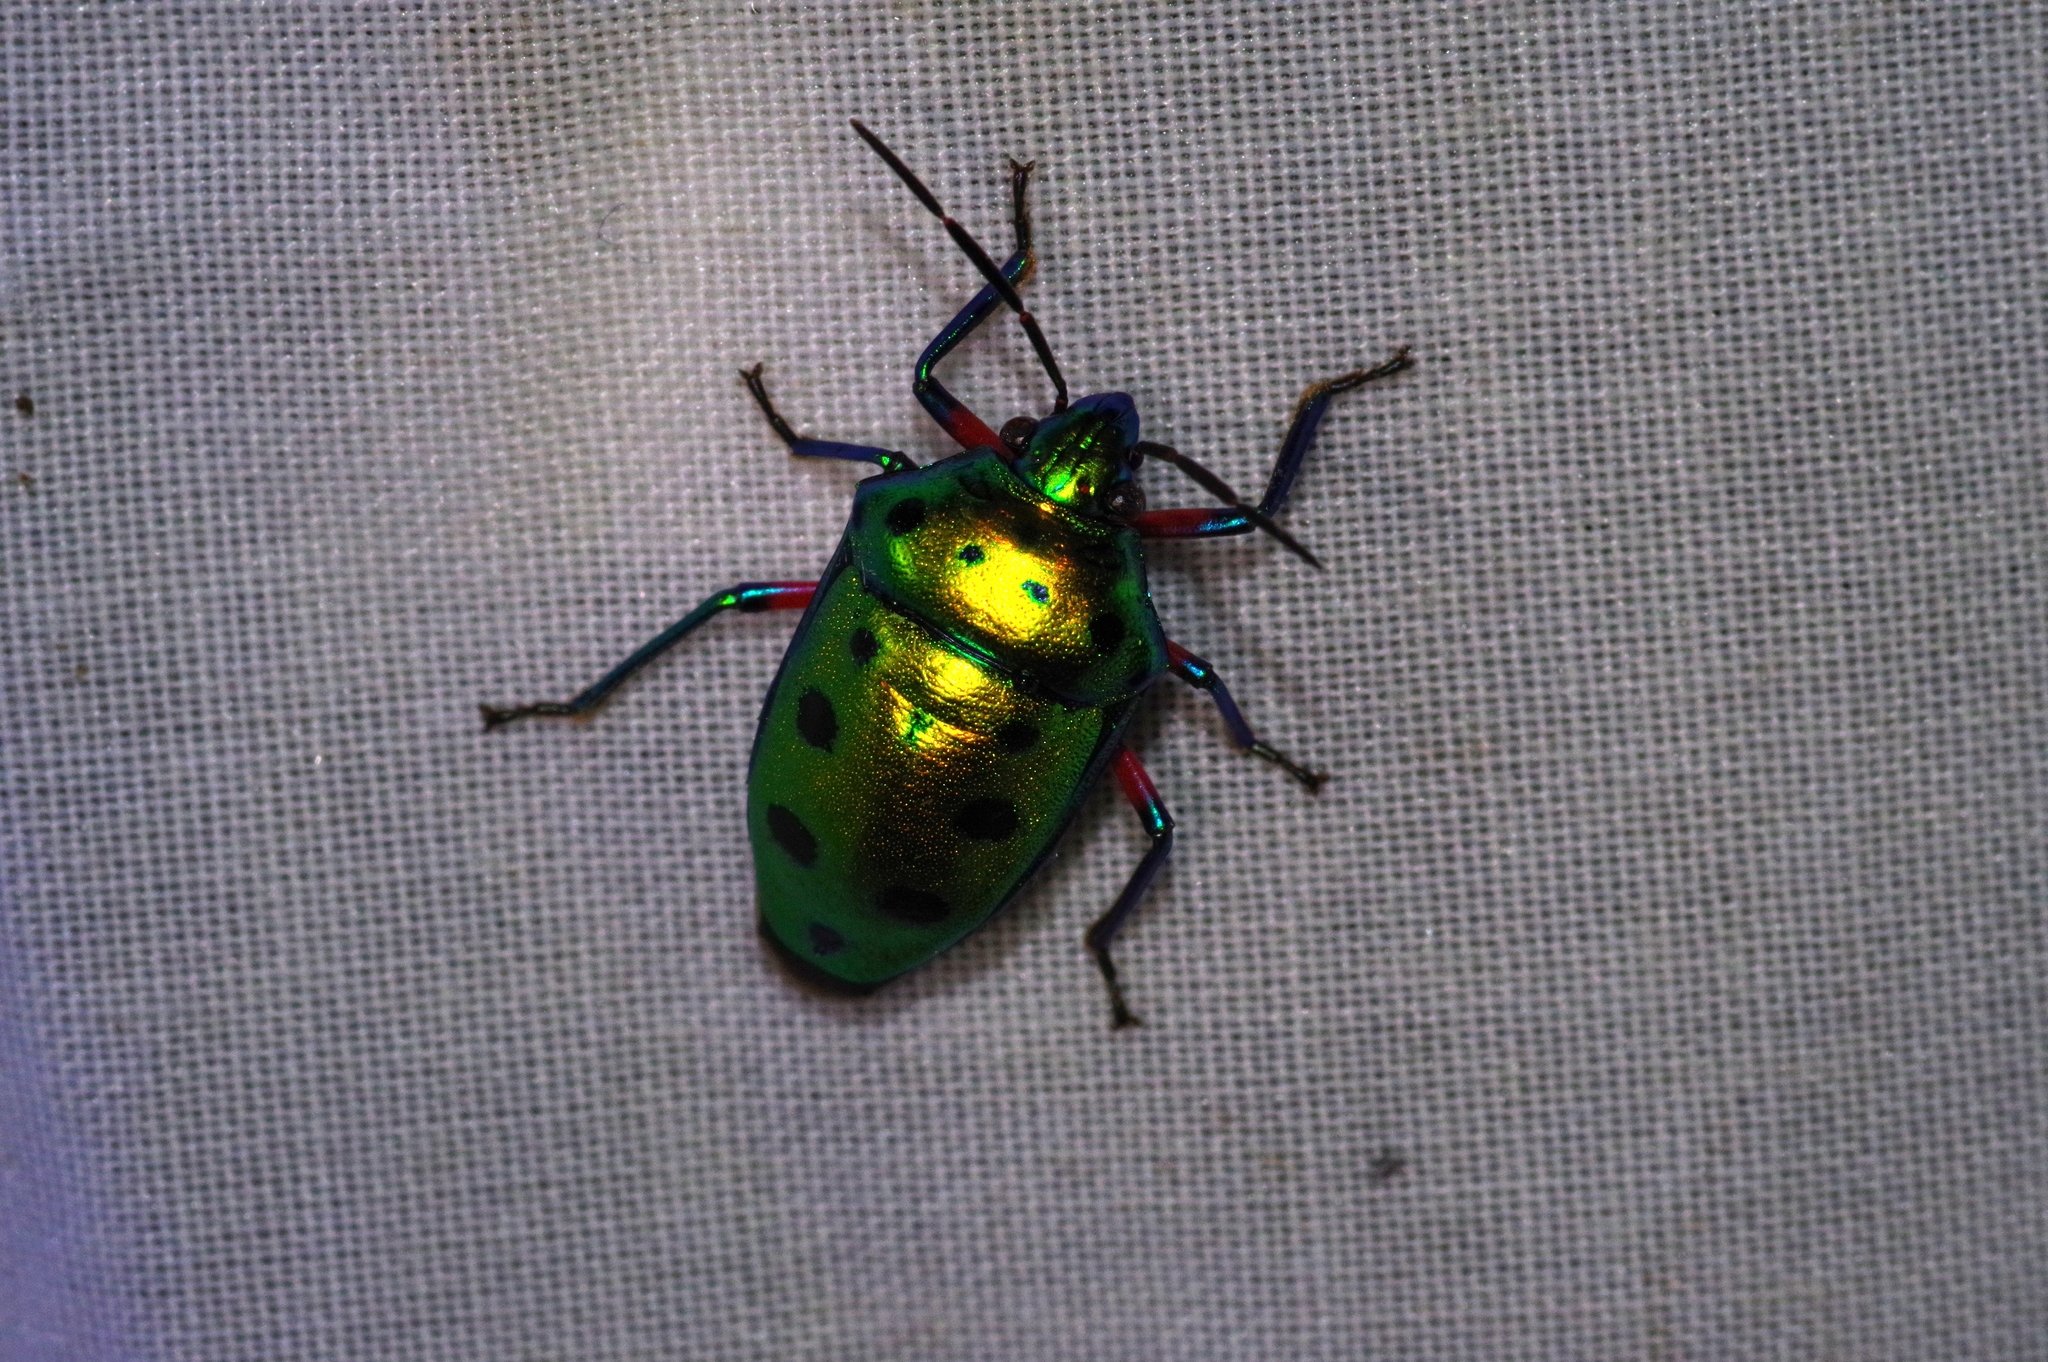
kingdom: Animalia
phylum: Arthropoda
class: Insecta
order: Hemiptera
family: Scutelleridae
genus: Calliphara
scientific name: Calliphara excellens
